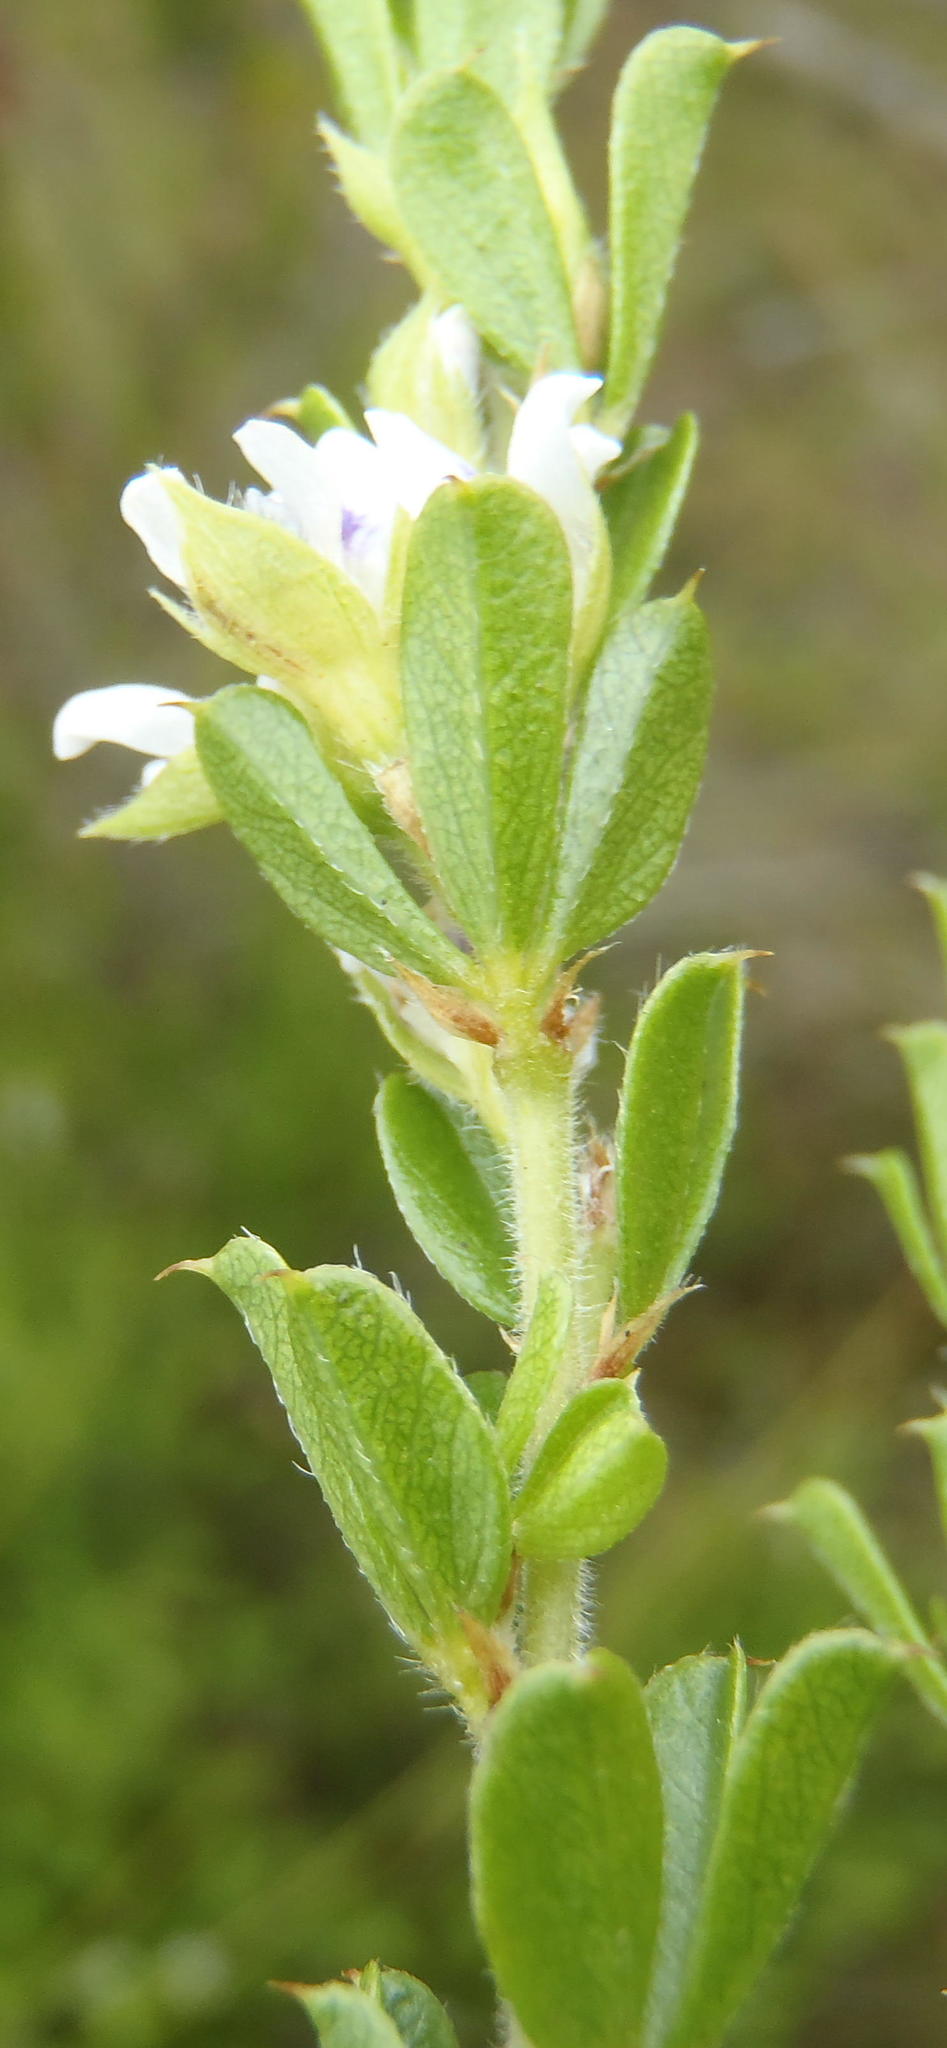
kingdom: Plantae
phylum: Tracheophyta
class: Magnoliopsida
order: Fabales
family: Fabaceae
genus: Psoralea
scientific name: Psoralea heterosepala
